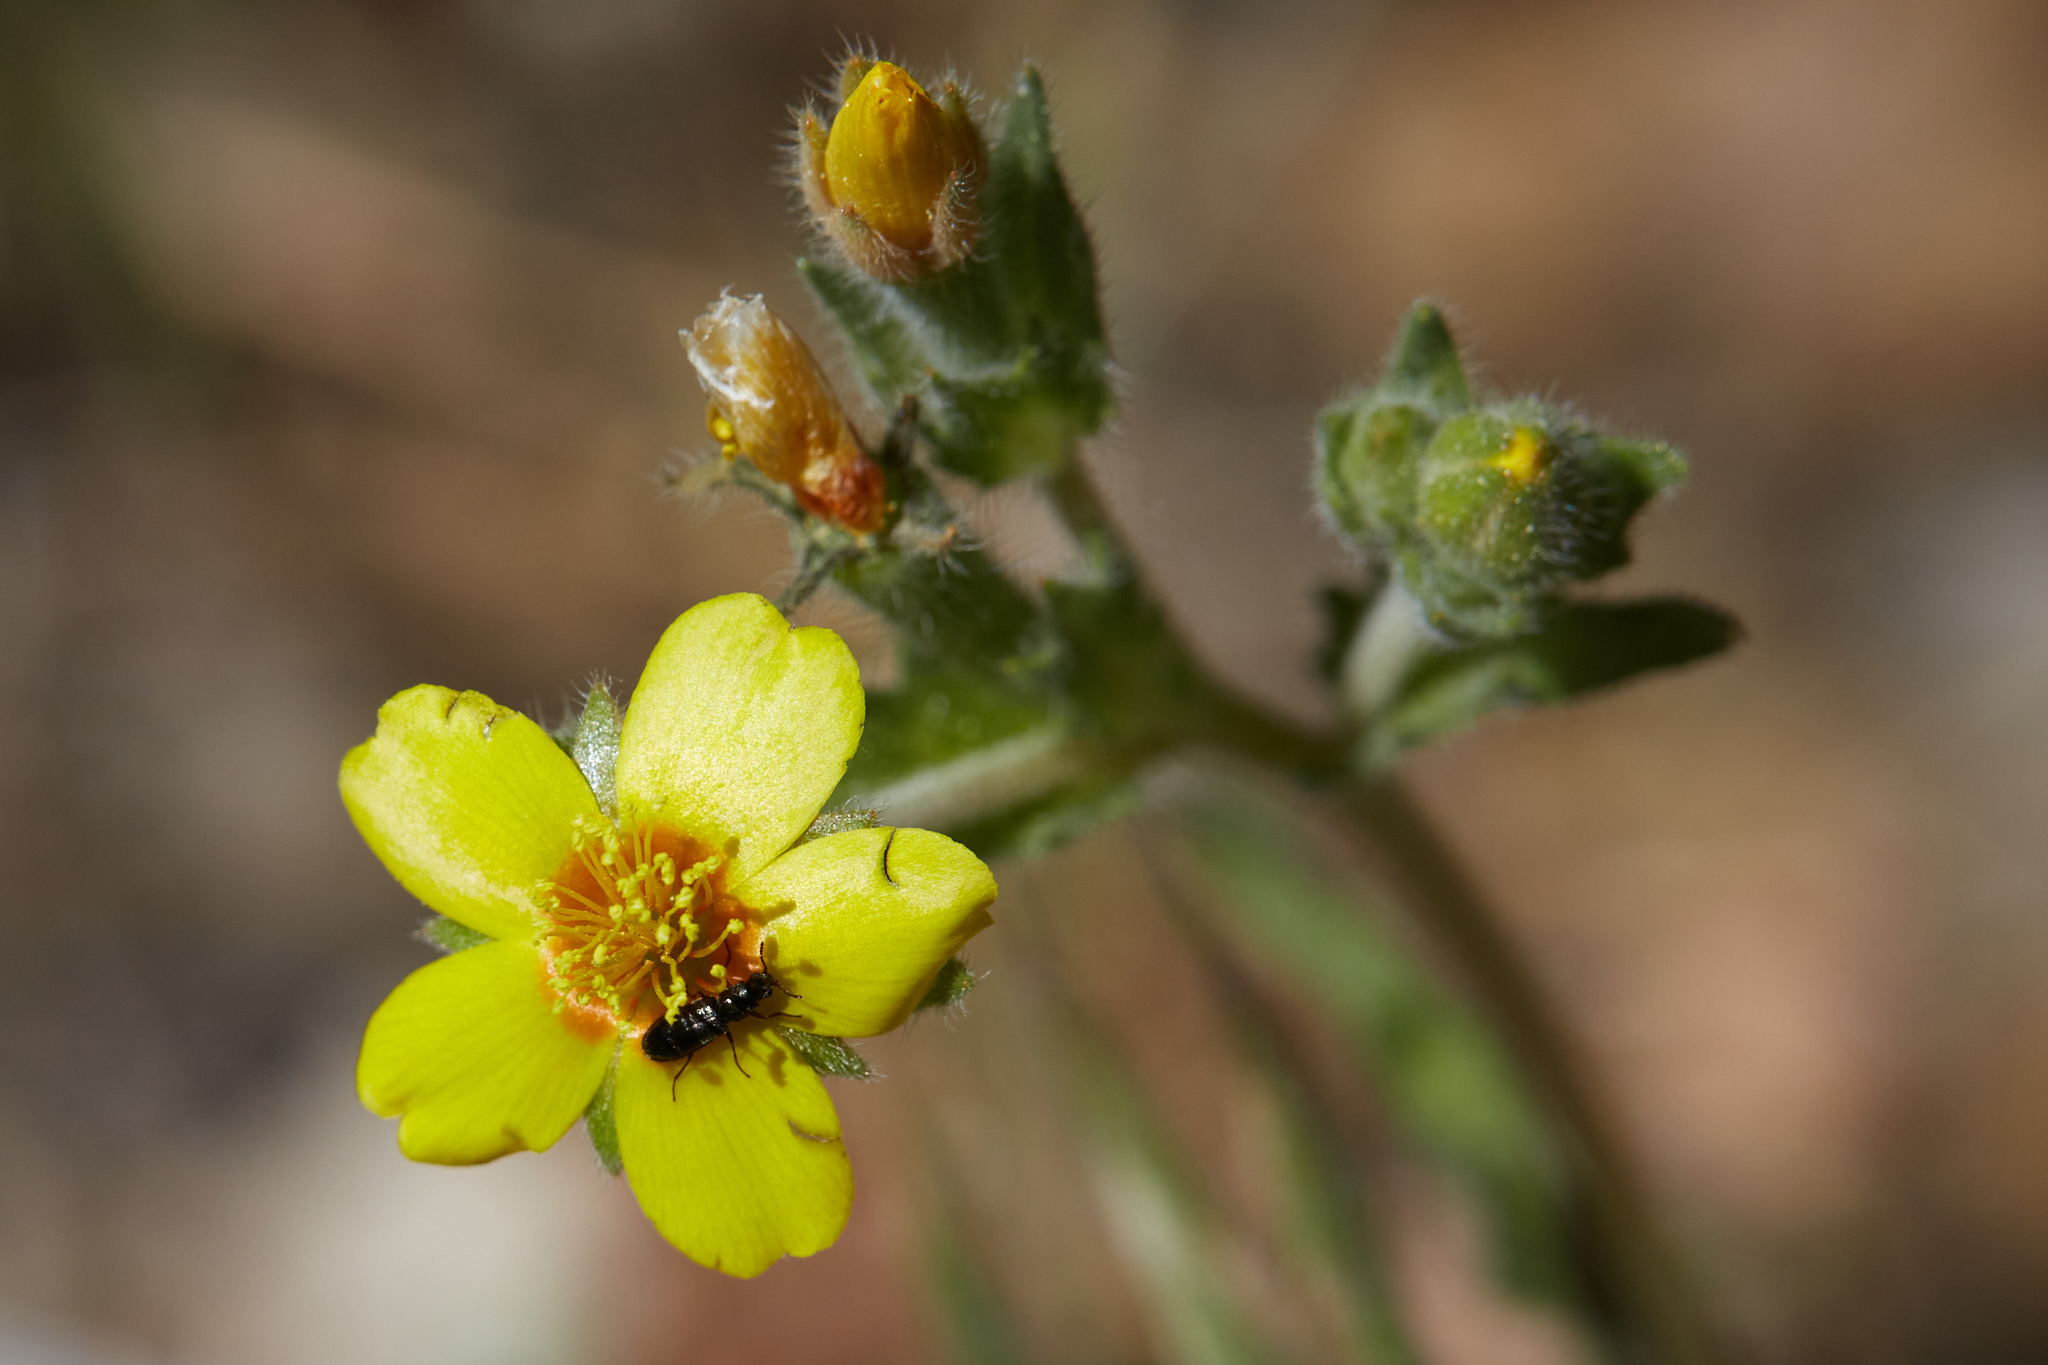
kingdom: Plantae
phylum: Tracheophyta
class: Magnoliopsida
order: Cornales
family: Loasaceae
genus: Mentzelia
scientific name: Mentzelia montana
